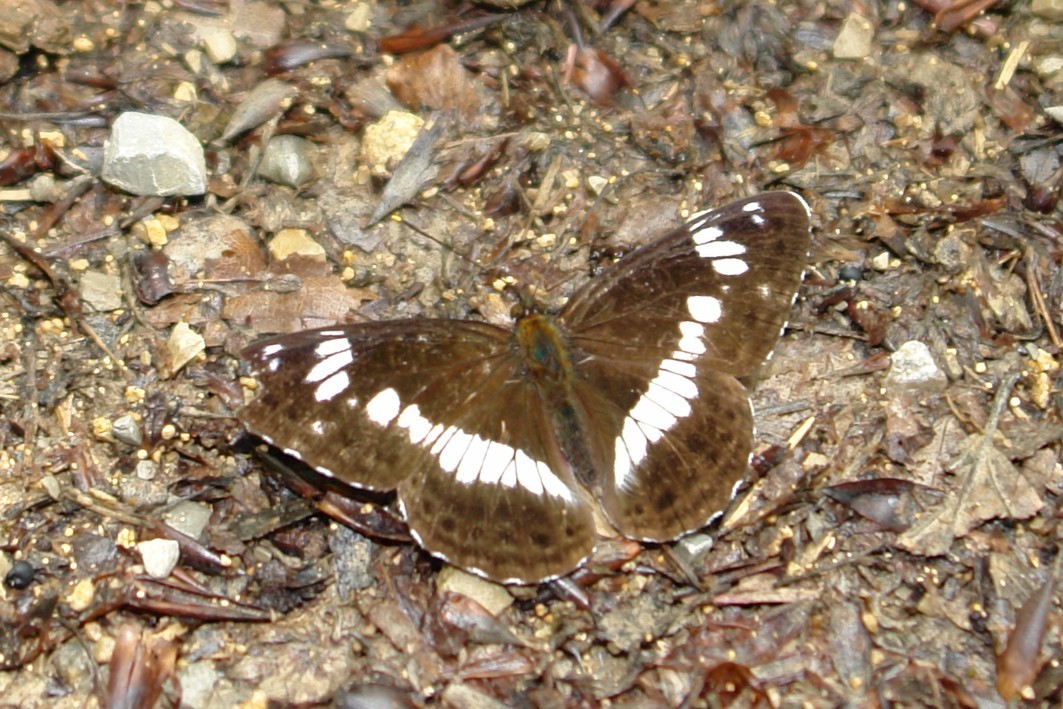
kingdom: Animalia
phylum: Arthropoda
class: Insecta
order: Lepidoptera
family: Nymphalidae
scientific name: Nymphalidae
